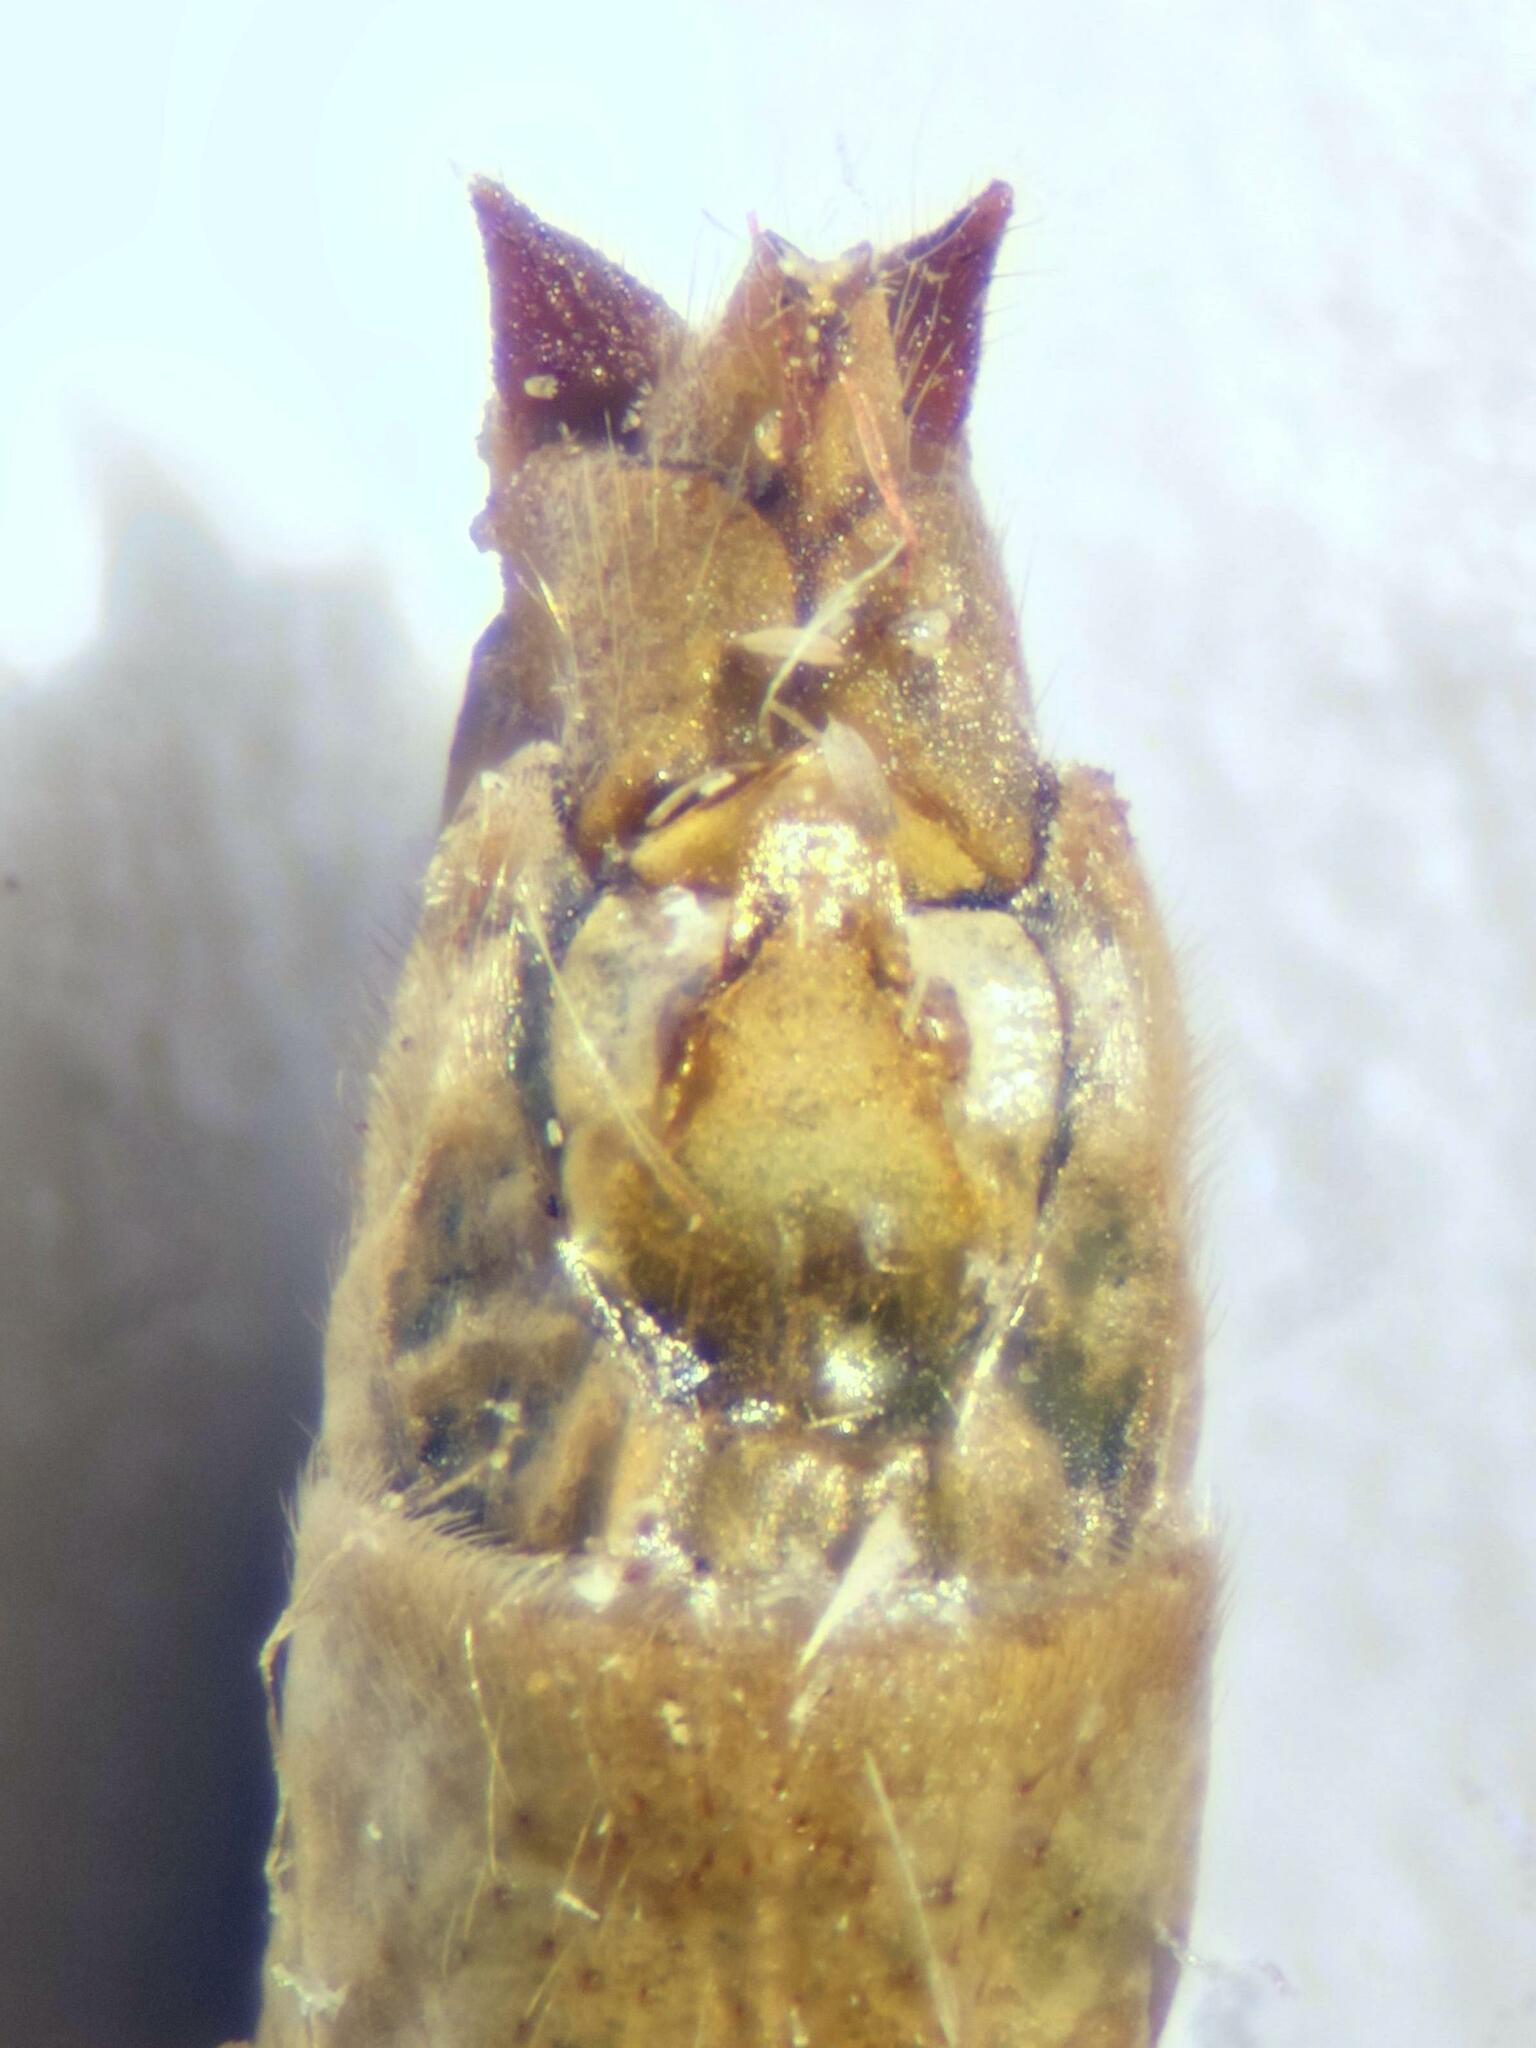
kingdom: Animalia
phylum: Arthropoda
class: Insecta
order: Trichoptera
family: Limnephilidae
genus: Glyphotaelius
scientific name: Glyphotaelius pellucidus
